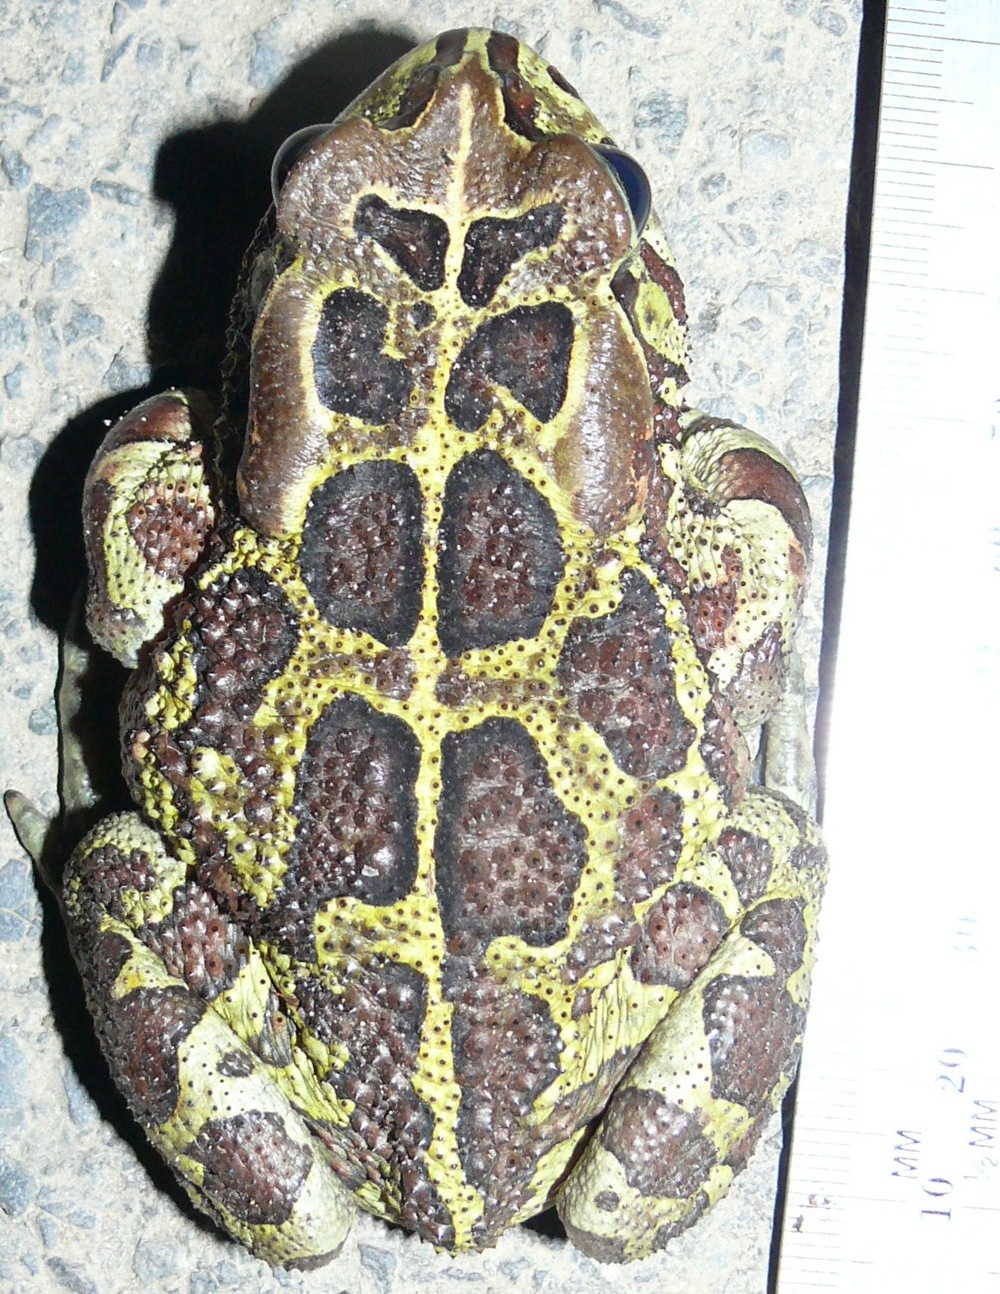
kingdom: Animalia
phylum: Chordata
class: Amphibia
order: Anura
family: Bufonidae
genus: Sclerophrys
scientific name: Sclerophrys pantherina
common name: Panther toad
